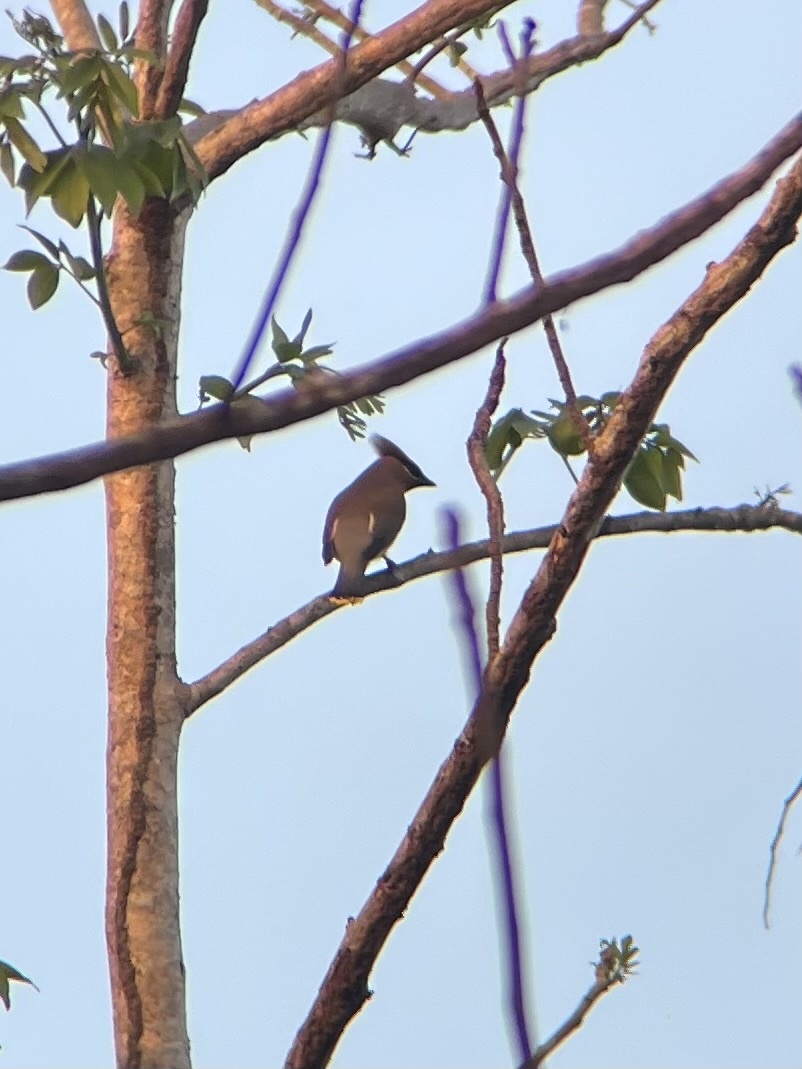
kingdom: Animalia
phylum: Chordata
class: Aves
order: Passeriformes
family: Bombycillidae
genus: Bombycilla
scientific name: Bombycilla cedrorum
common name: Cedar waxwing
